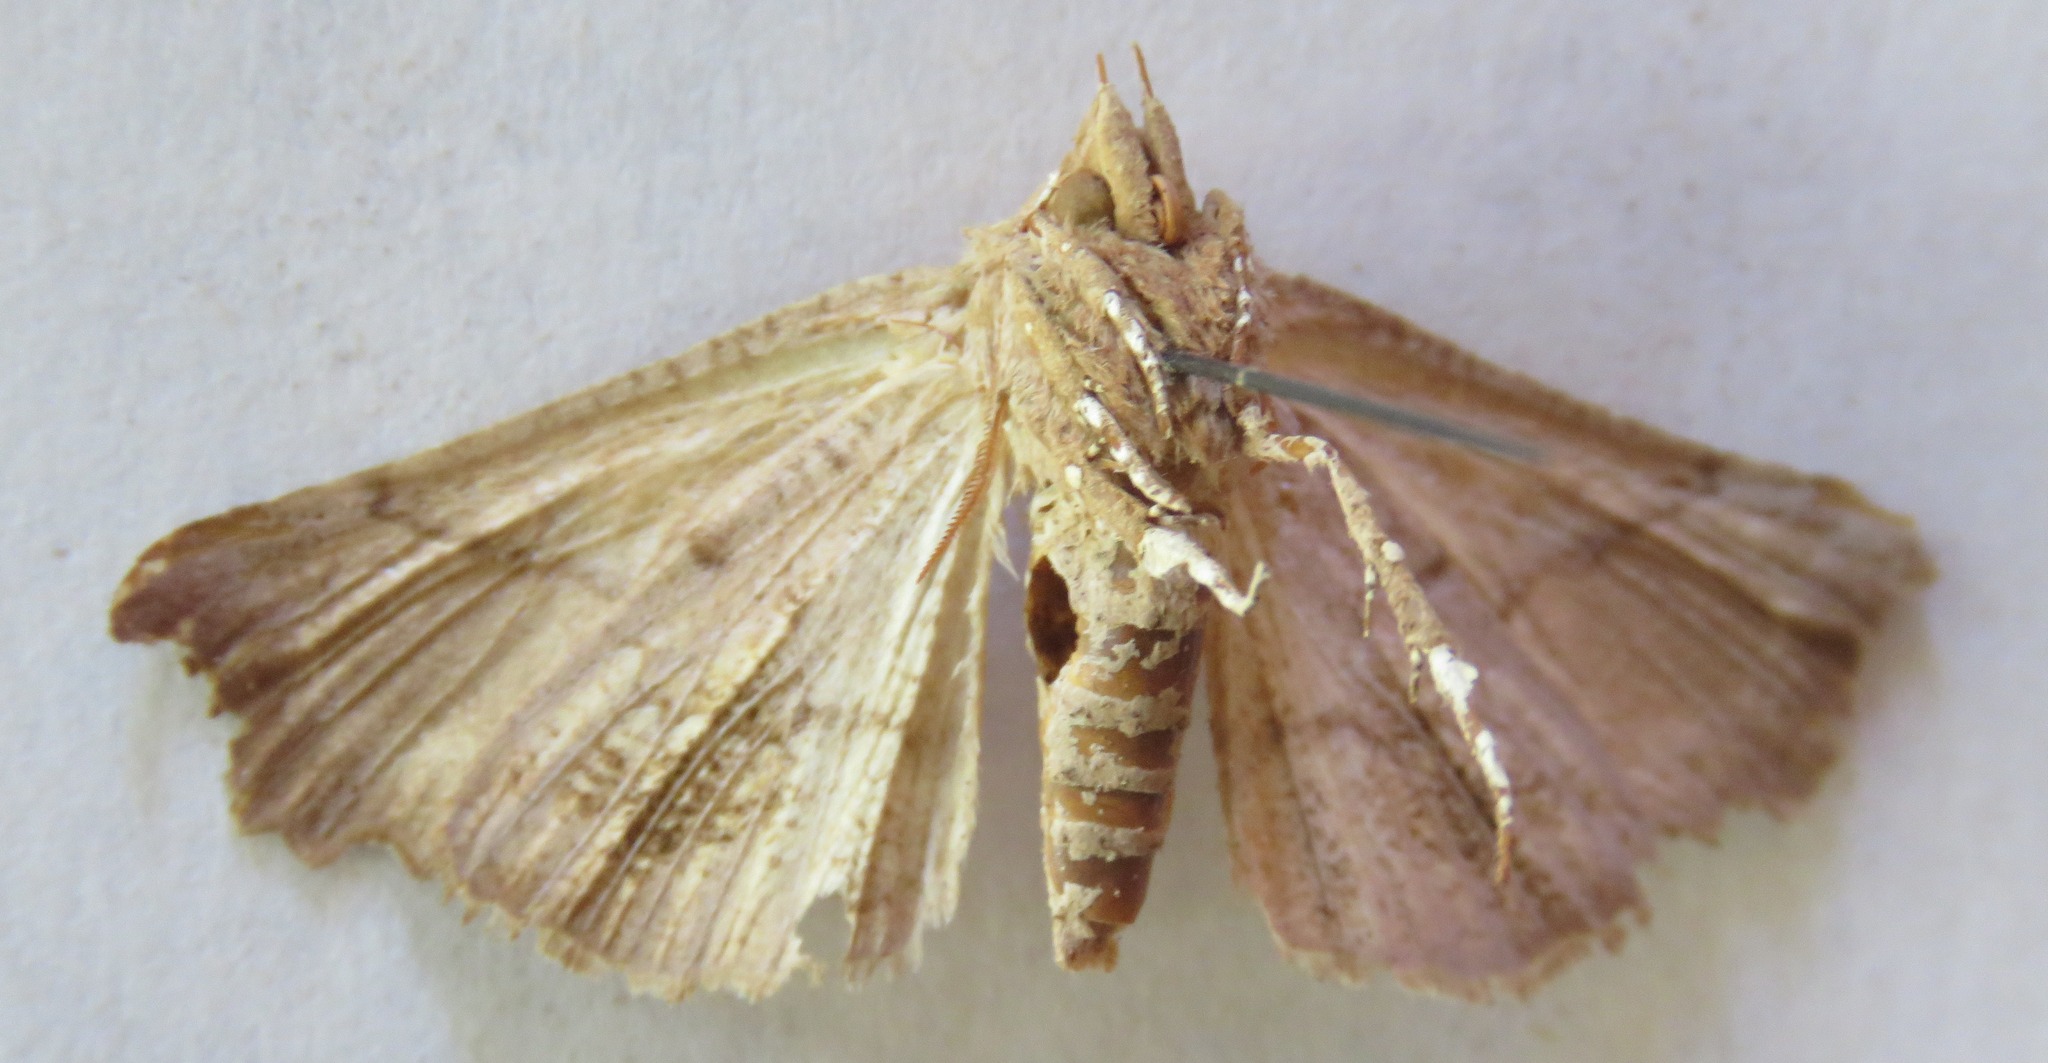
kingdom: Animalia
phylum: Arthropoda
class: Insecta
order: Lepidoptera
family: Erebidae
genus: Scoliopteryx
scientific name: Scoliopteryx libatrix
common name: Herald
